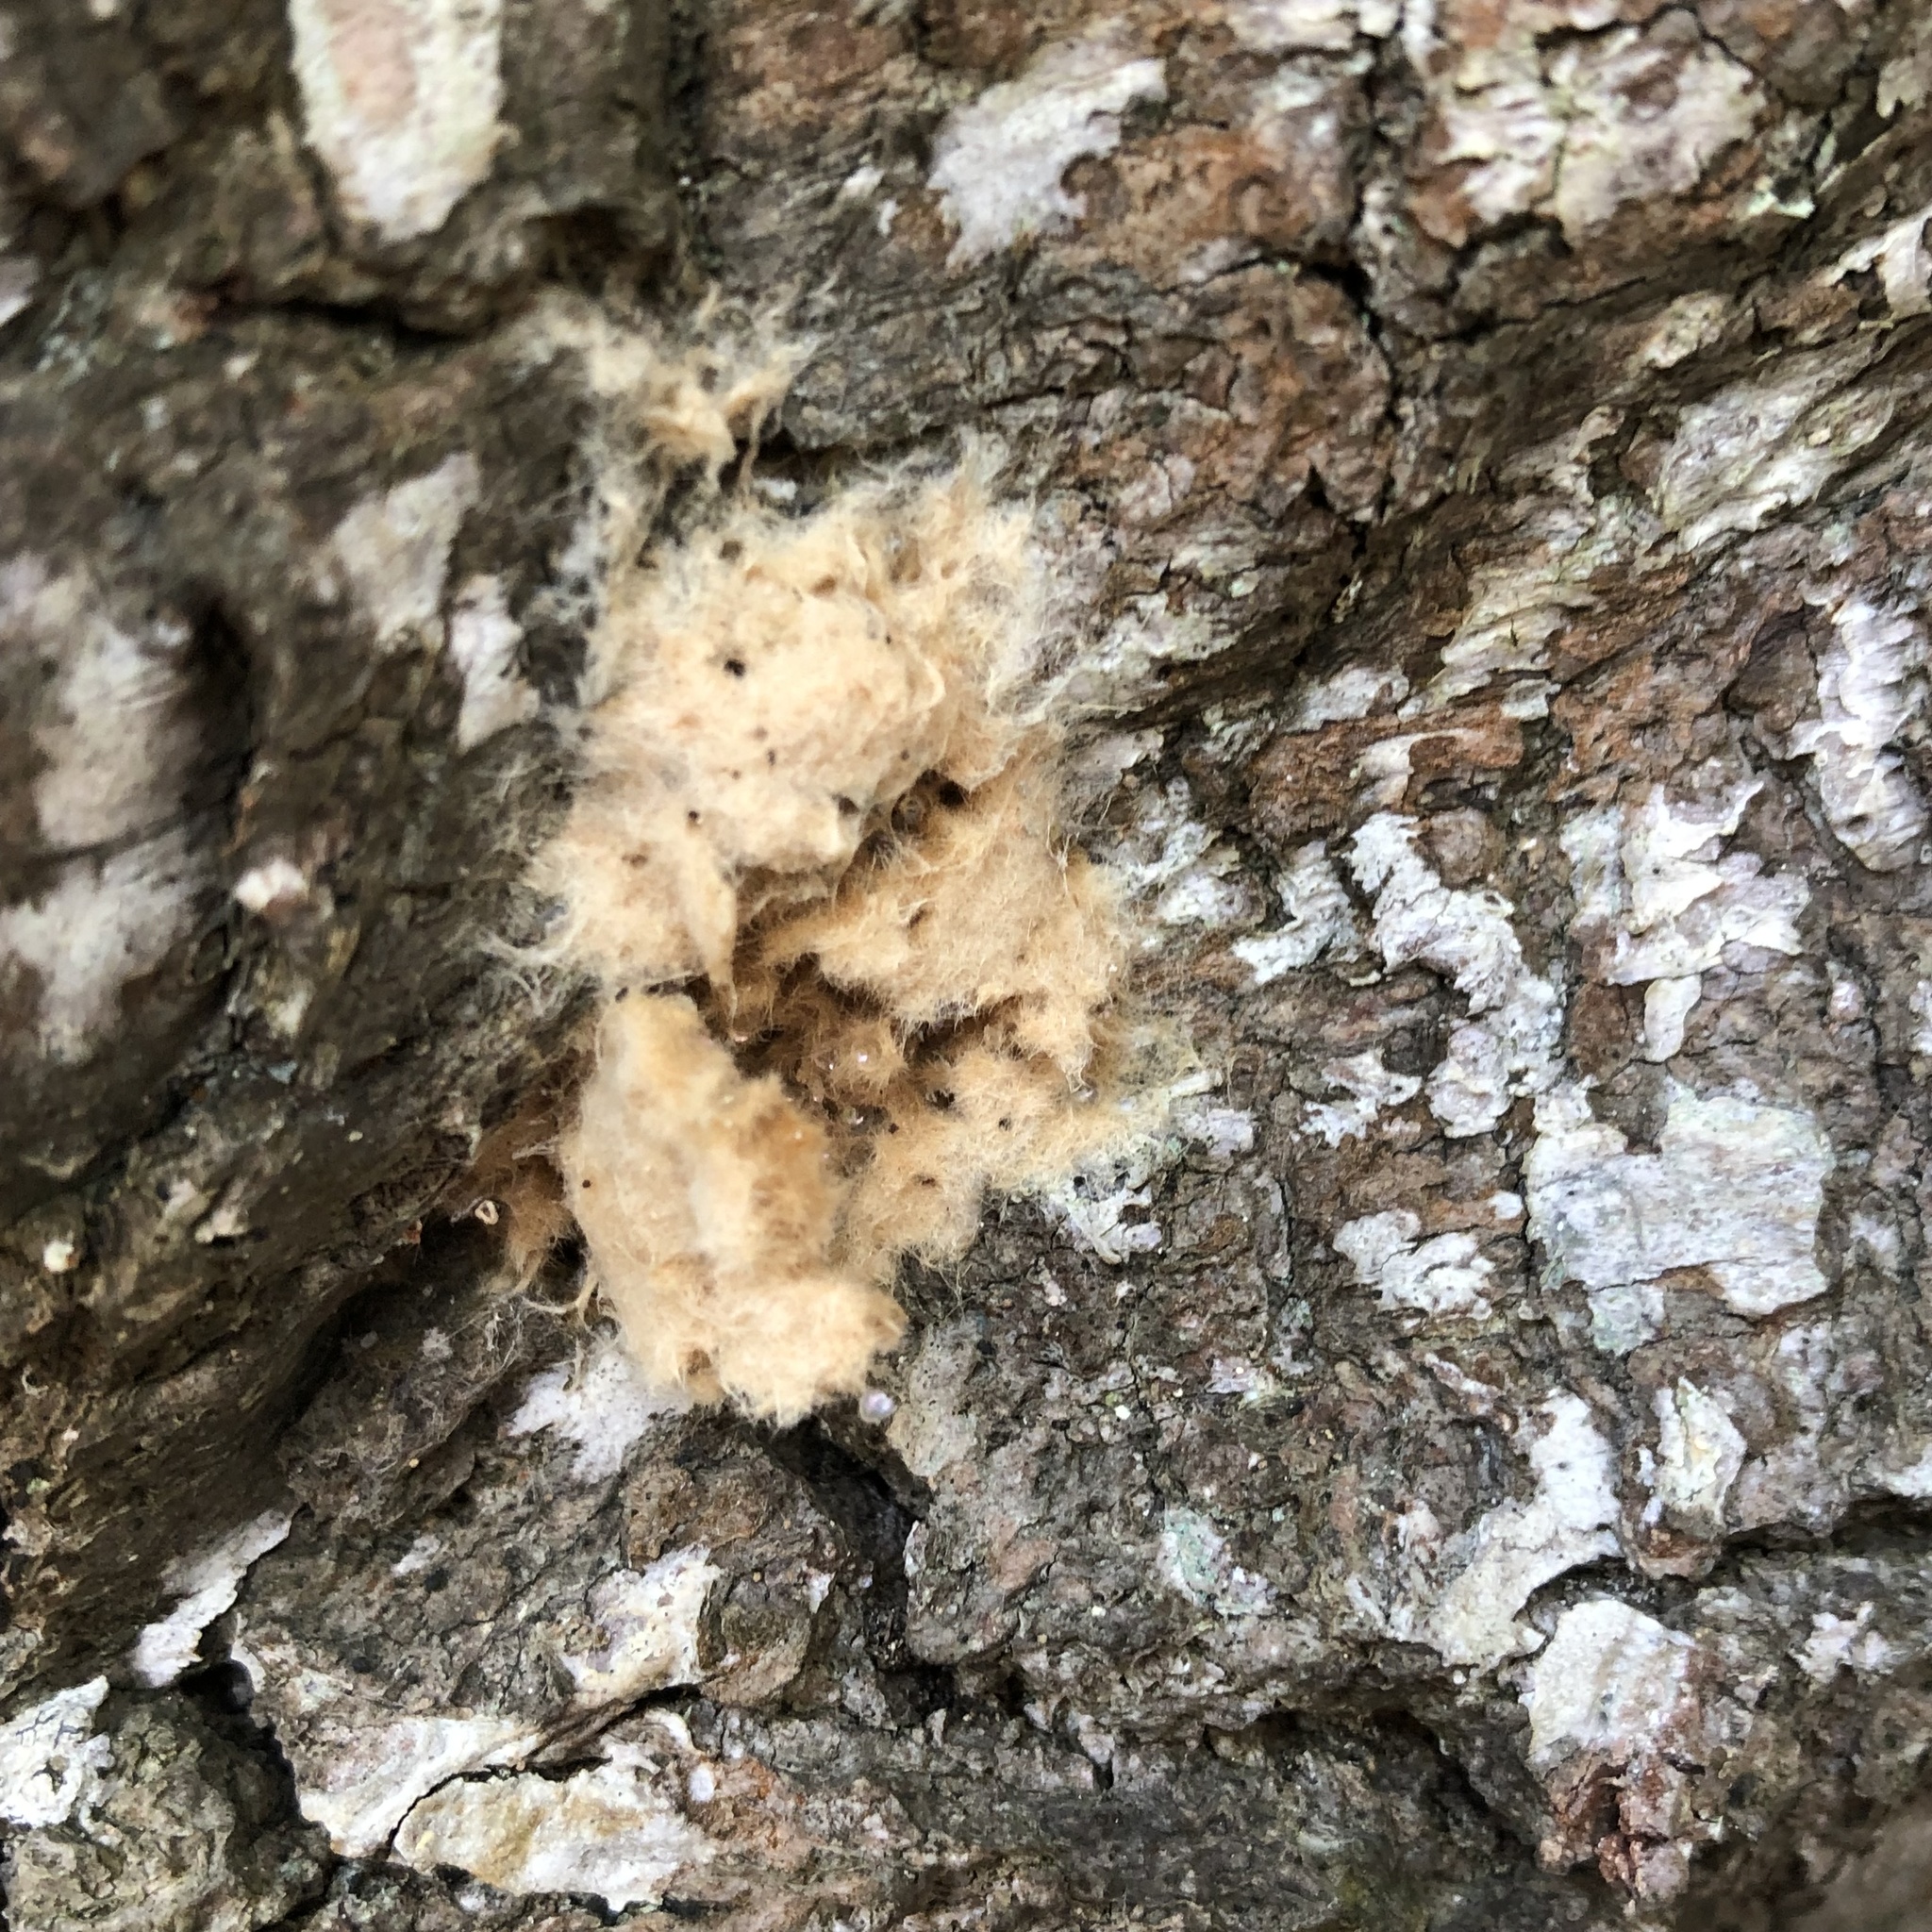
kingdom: Animalia
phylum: Arthropoda
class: Insecta
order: Lepidoptera
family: Erebidae
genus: Lymantria
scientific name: Lymantria dispar
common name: Gypsy moth
